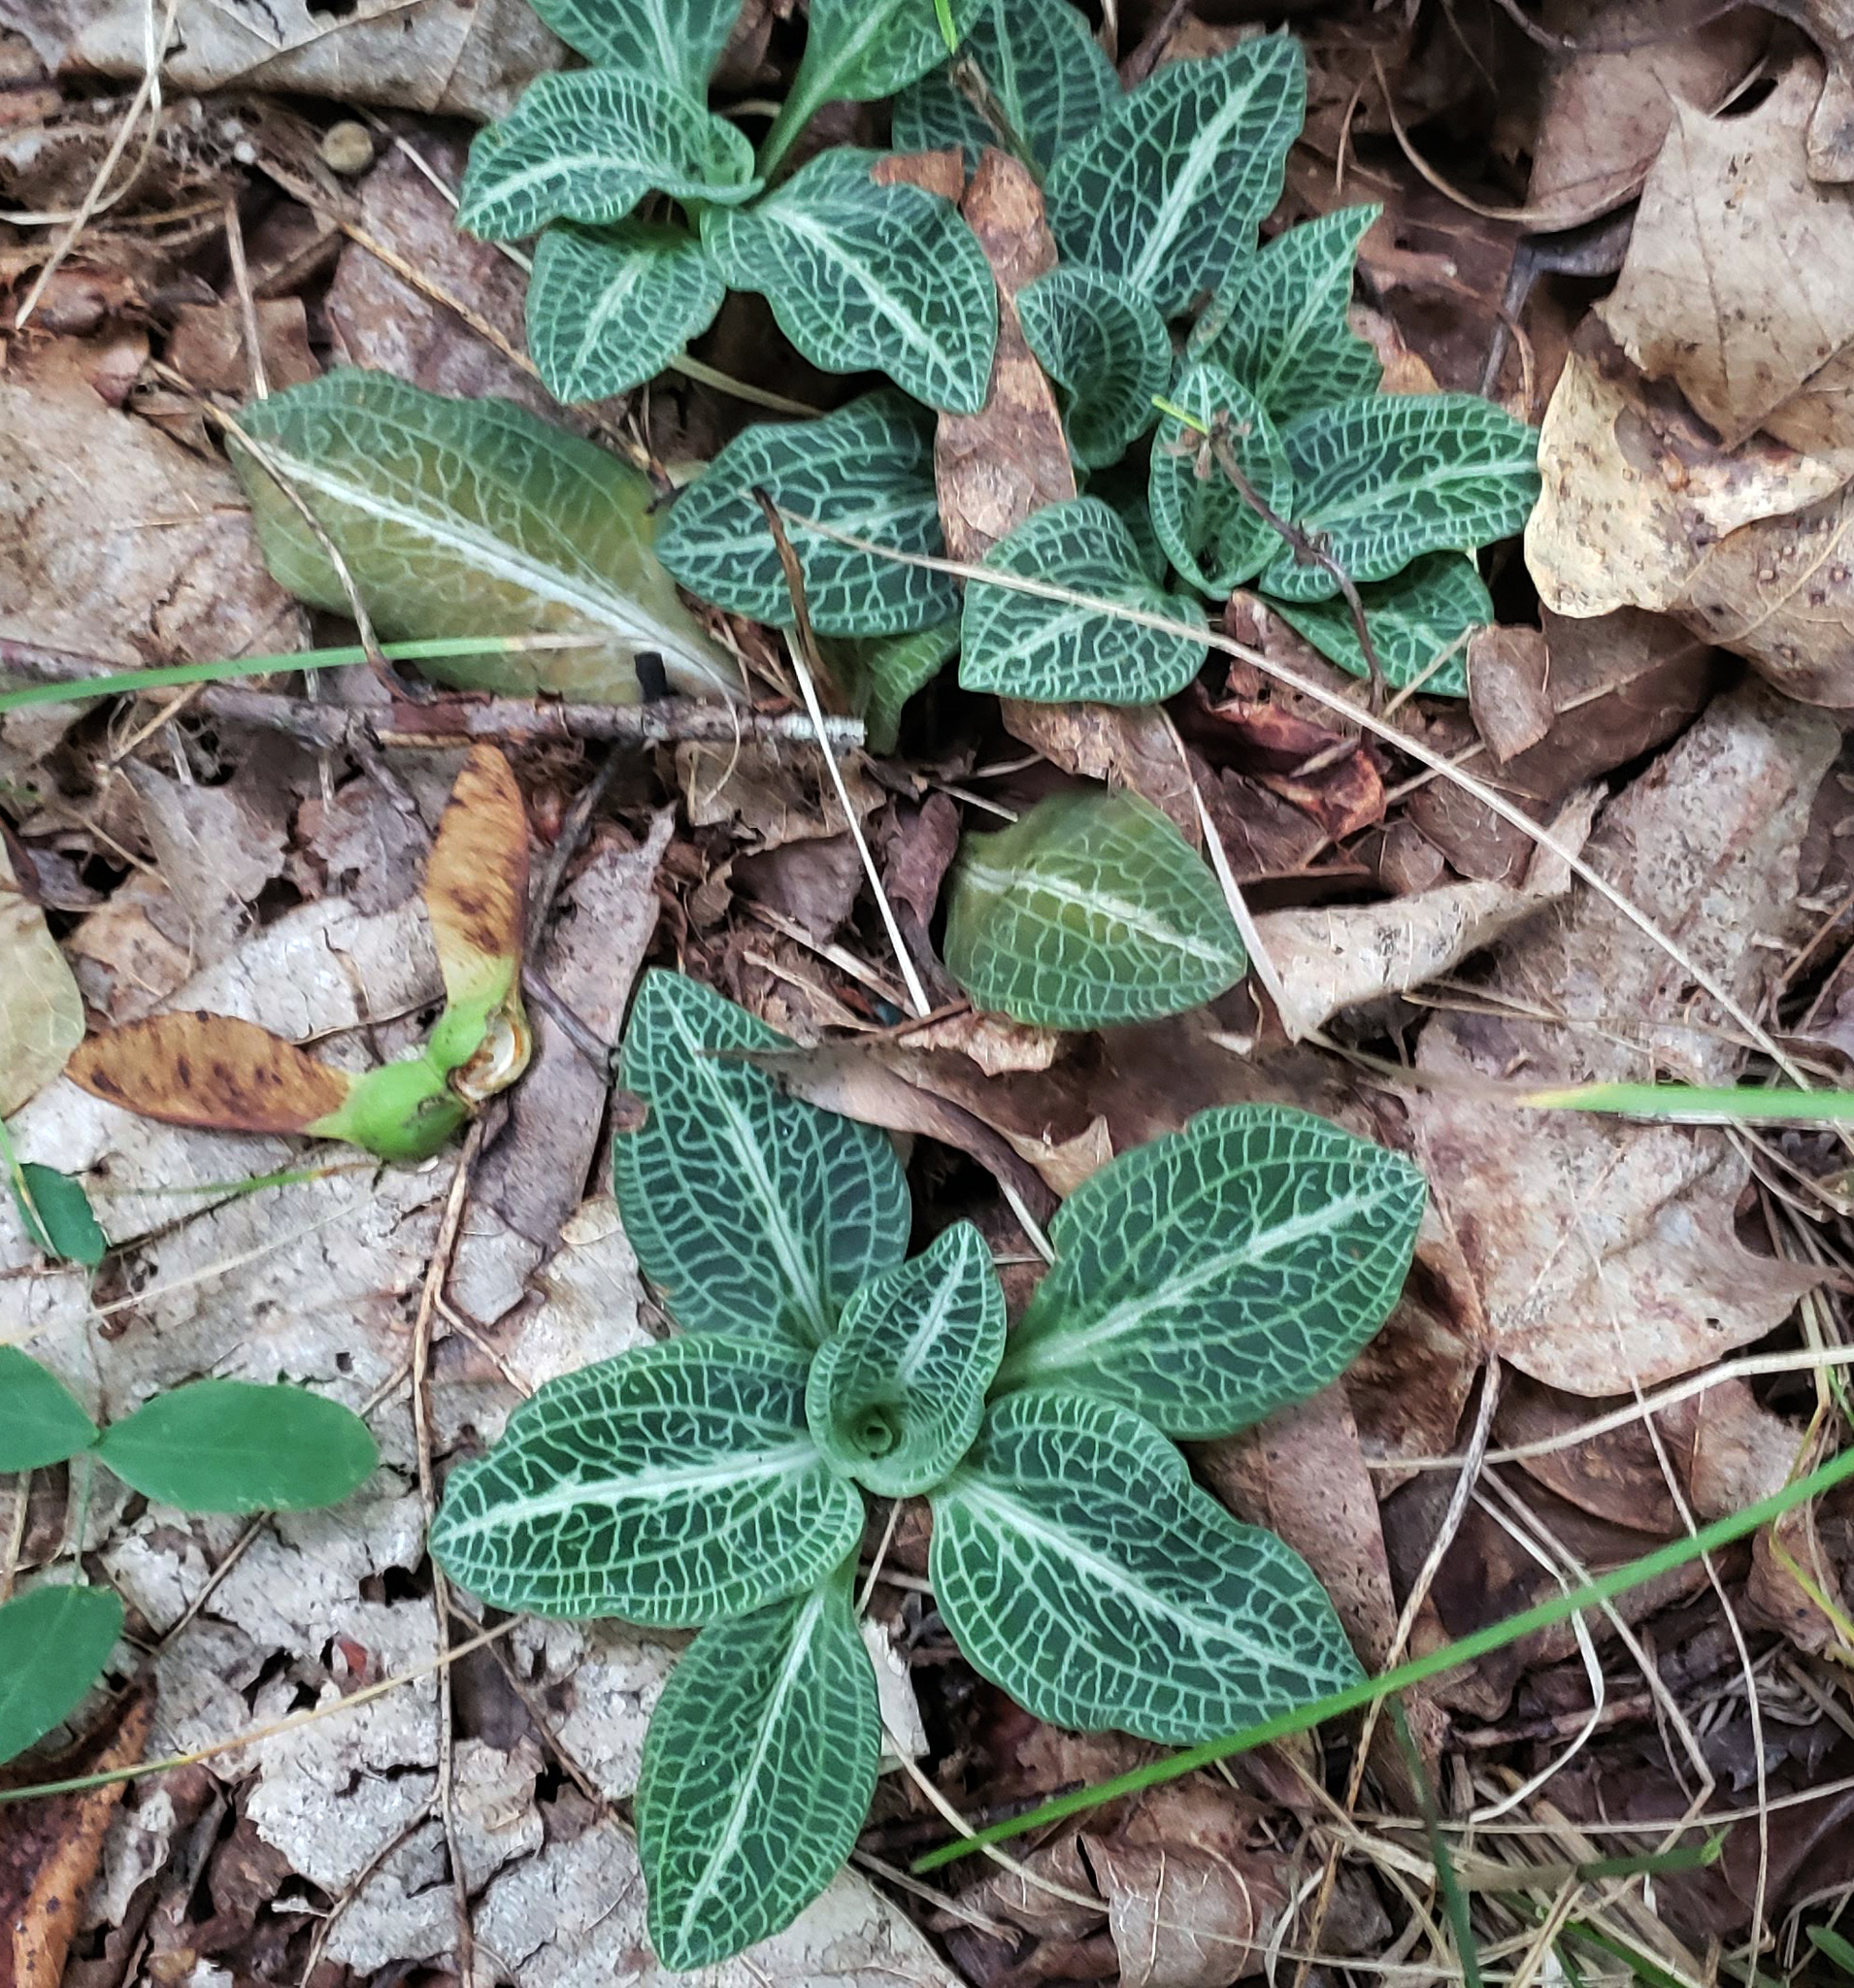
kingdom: Plantae
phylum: Tracheophyta
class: Liliopsida
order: Asparagales
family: Orchidaceae
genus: Goodyera
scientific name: Goodyera pubescens
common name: Downy rattlesnake-plantain
